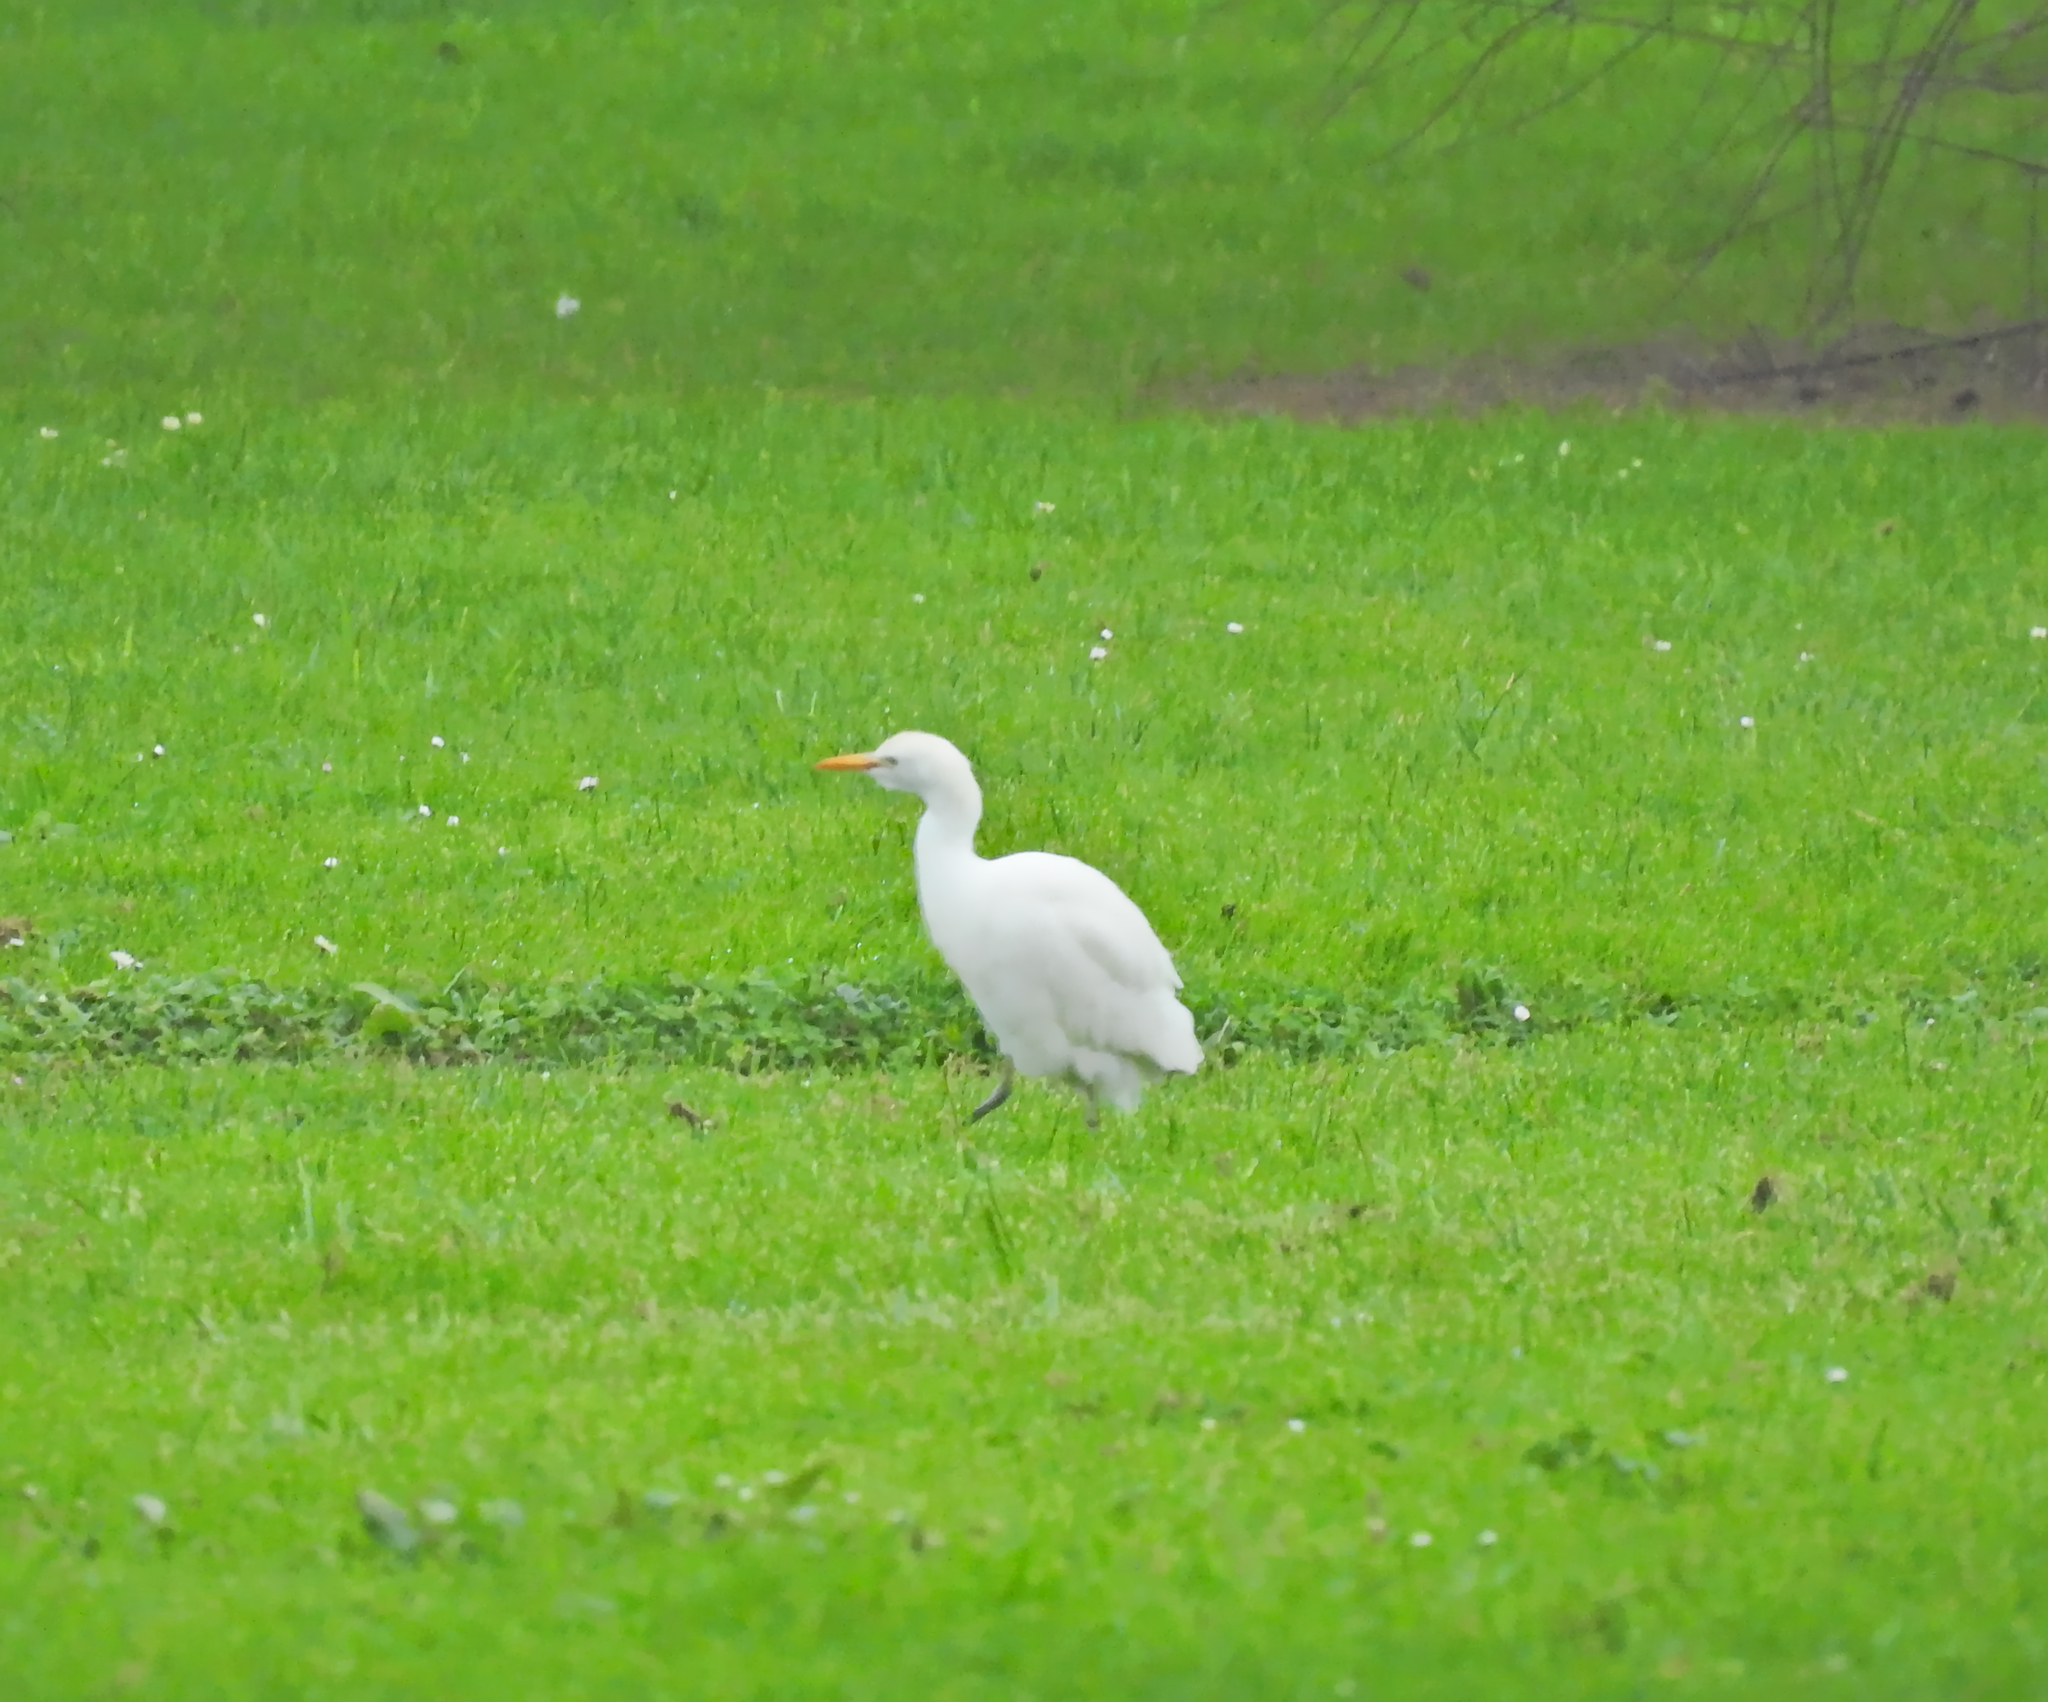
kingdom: Animalia
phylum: Chordata
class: Aves
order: Pelecaniformes
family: Ardeidae
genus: Bubulcus
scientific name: Bubulcus ibis
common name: Cattle egret
